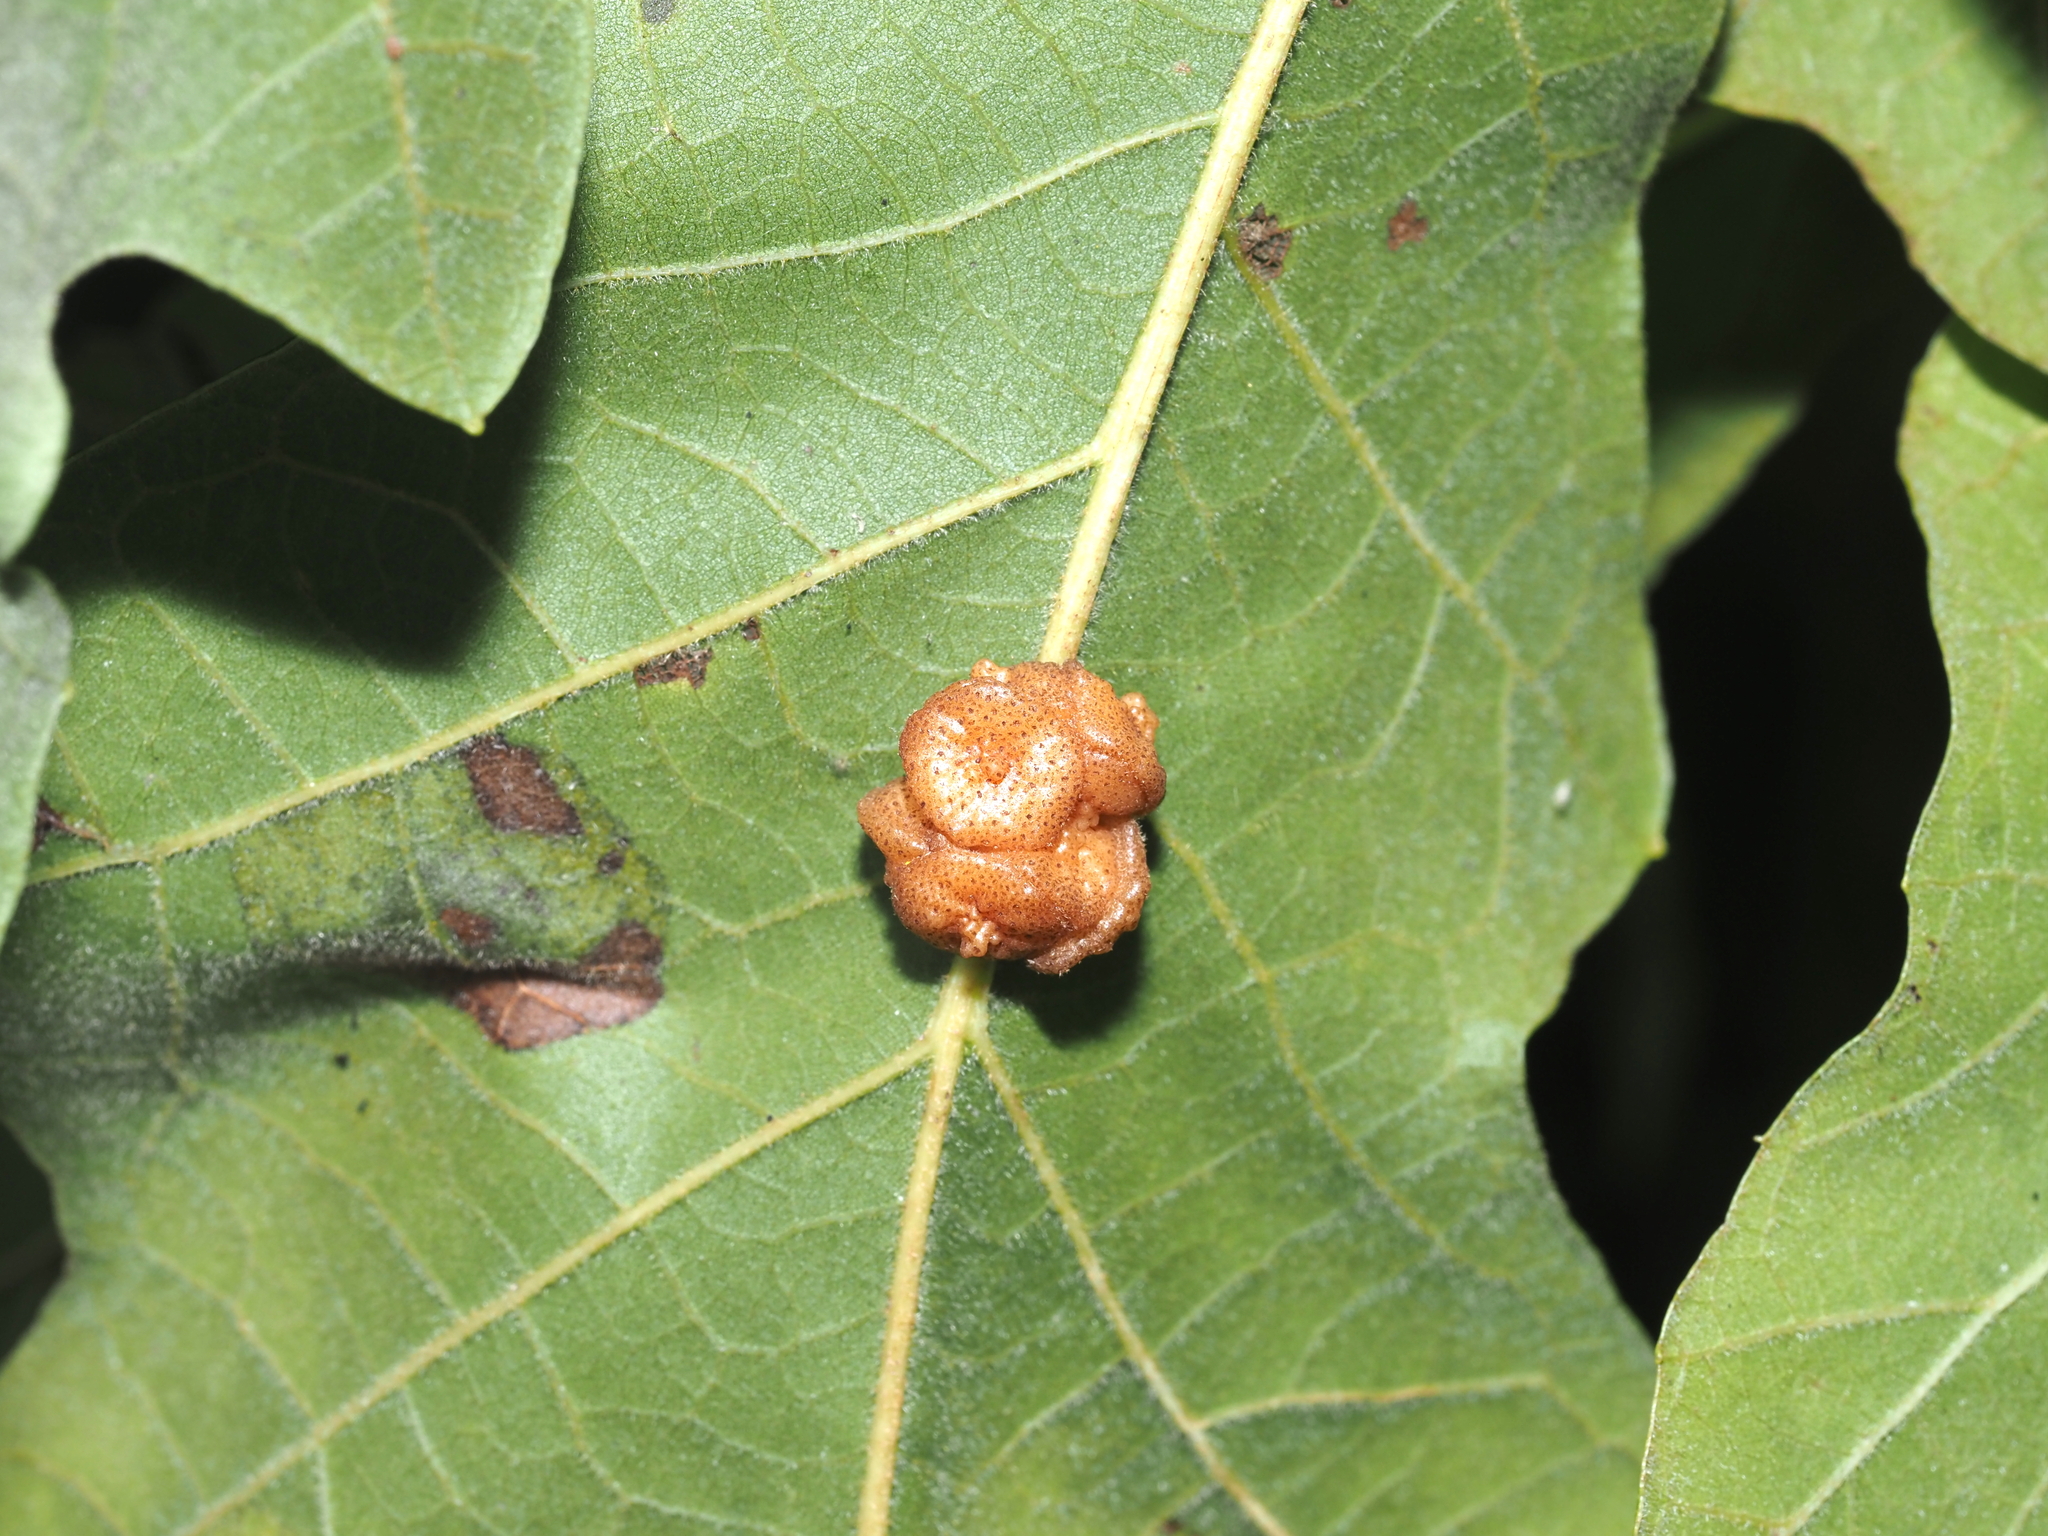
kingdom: Animalia
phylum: Arthropoda
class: Insecta
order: Hymenoptera
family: Cynipidae
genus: Andricus
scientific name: Andricus
